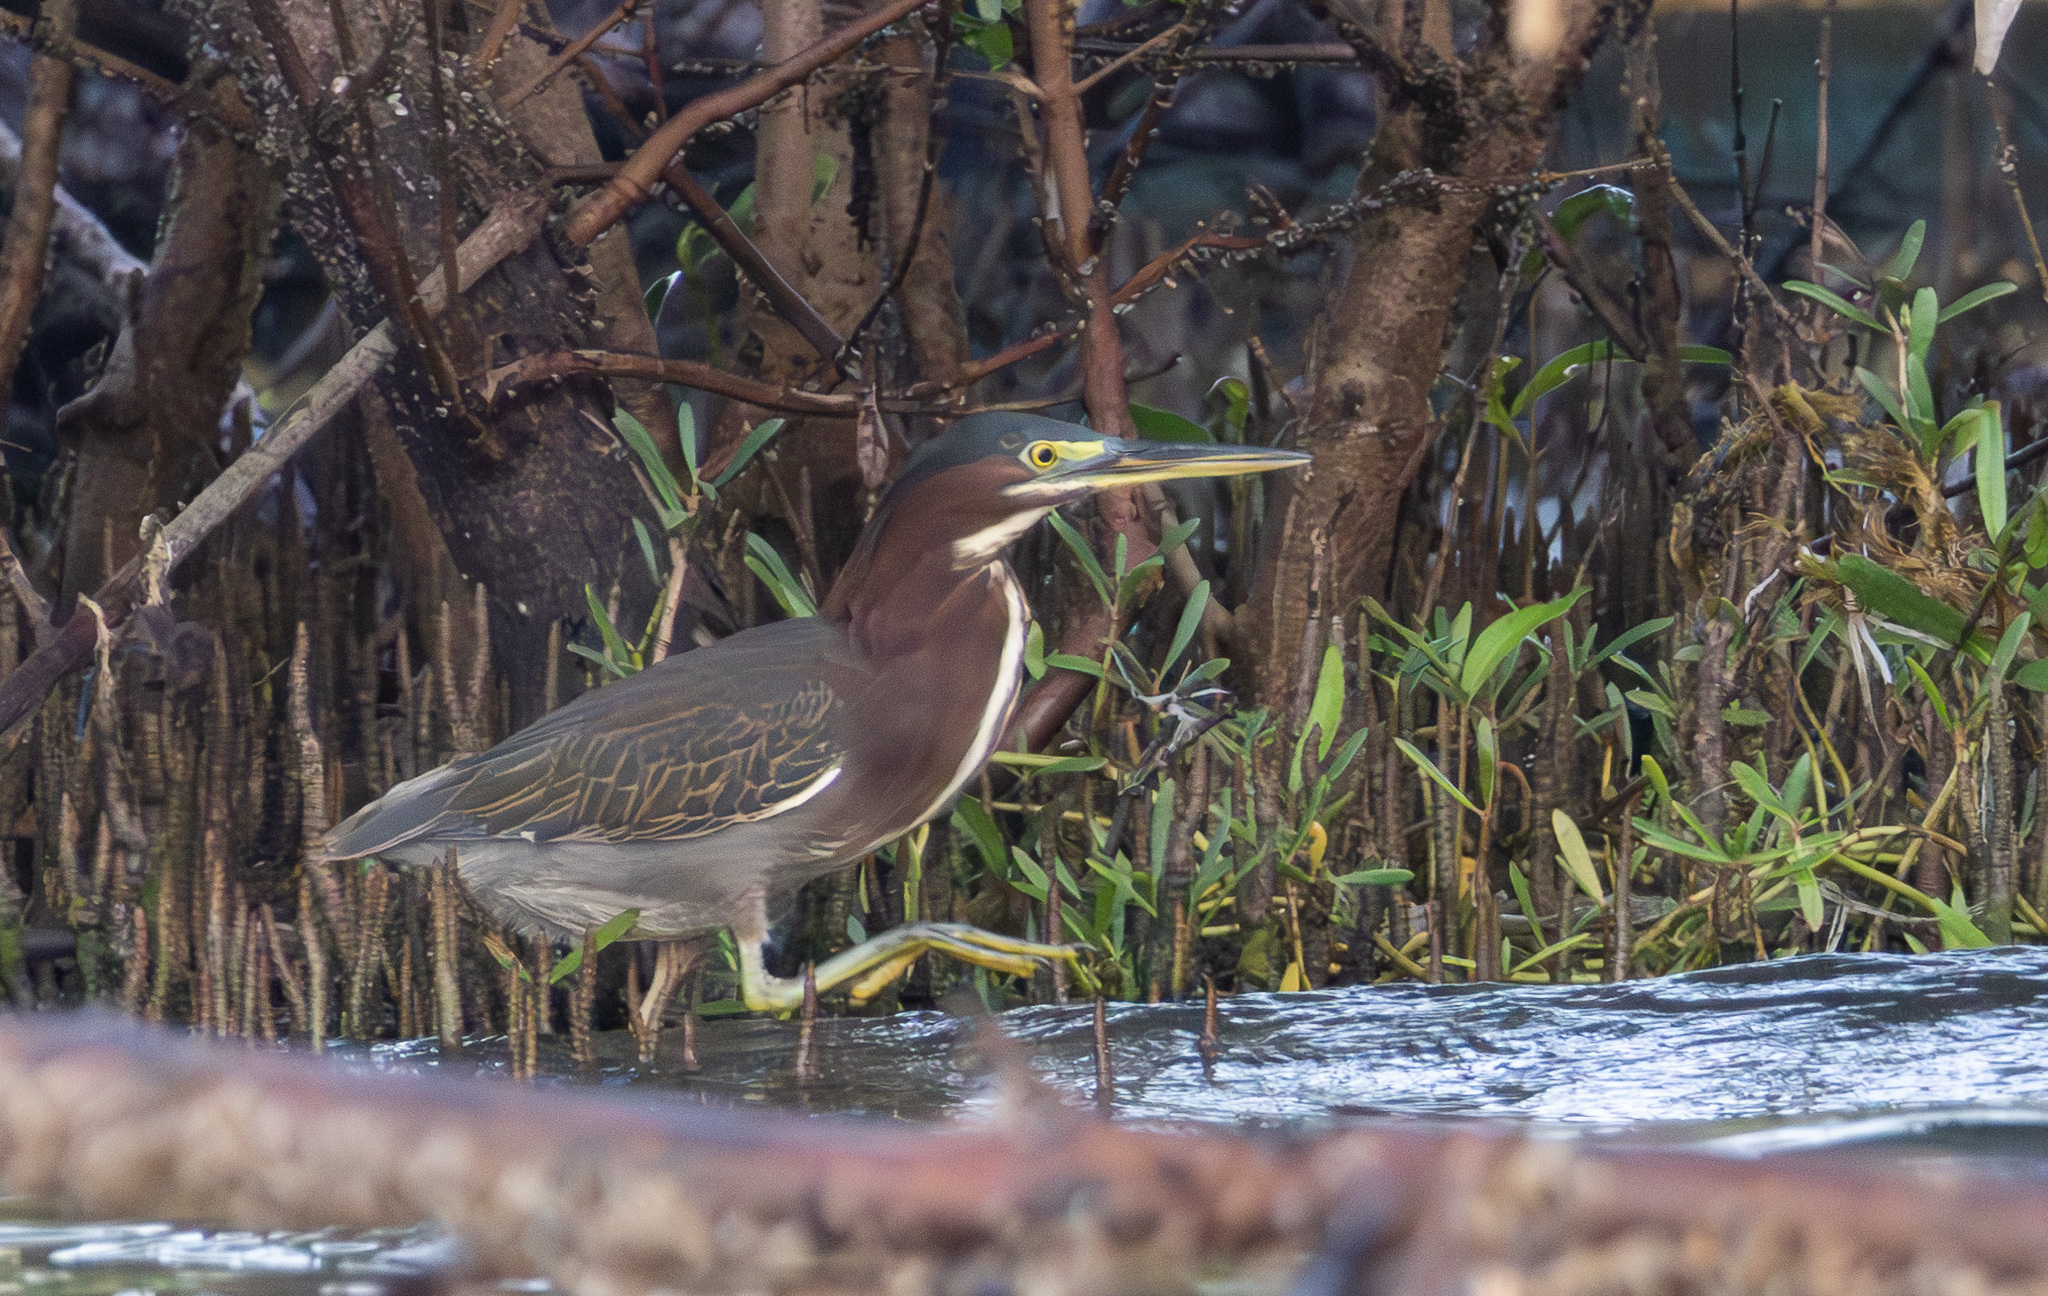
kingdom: Animalia
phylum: Chordata
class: Aves
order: Pelecaniformes
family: Ardeidae
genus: Butorides
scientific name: Butorides virescens
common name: Green heron
